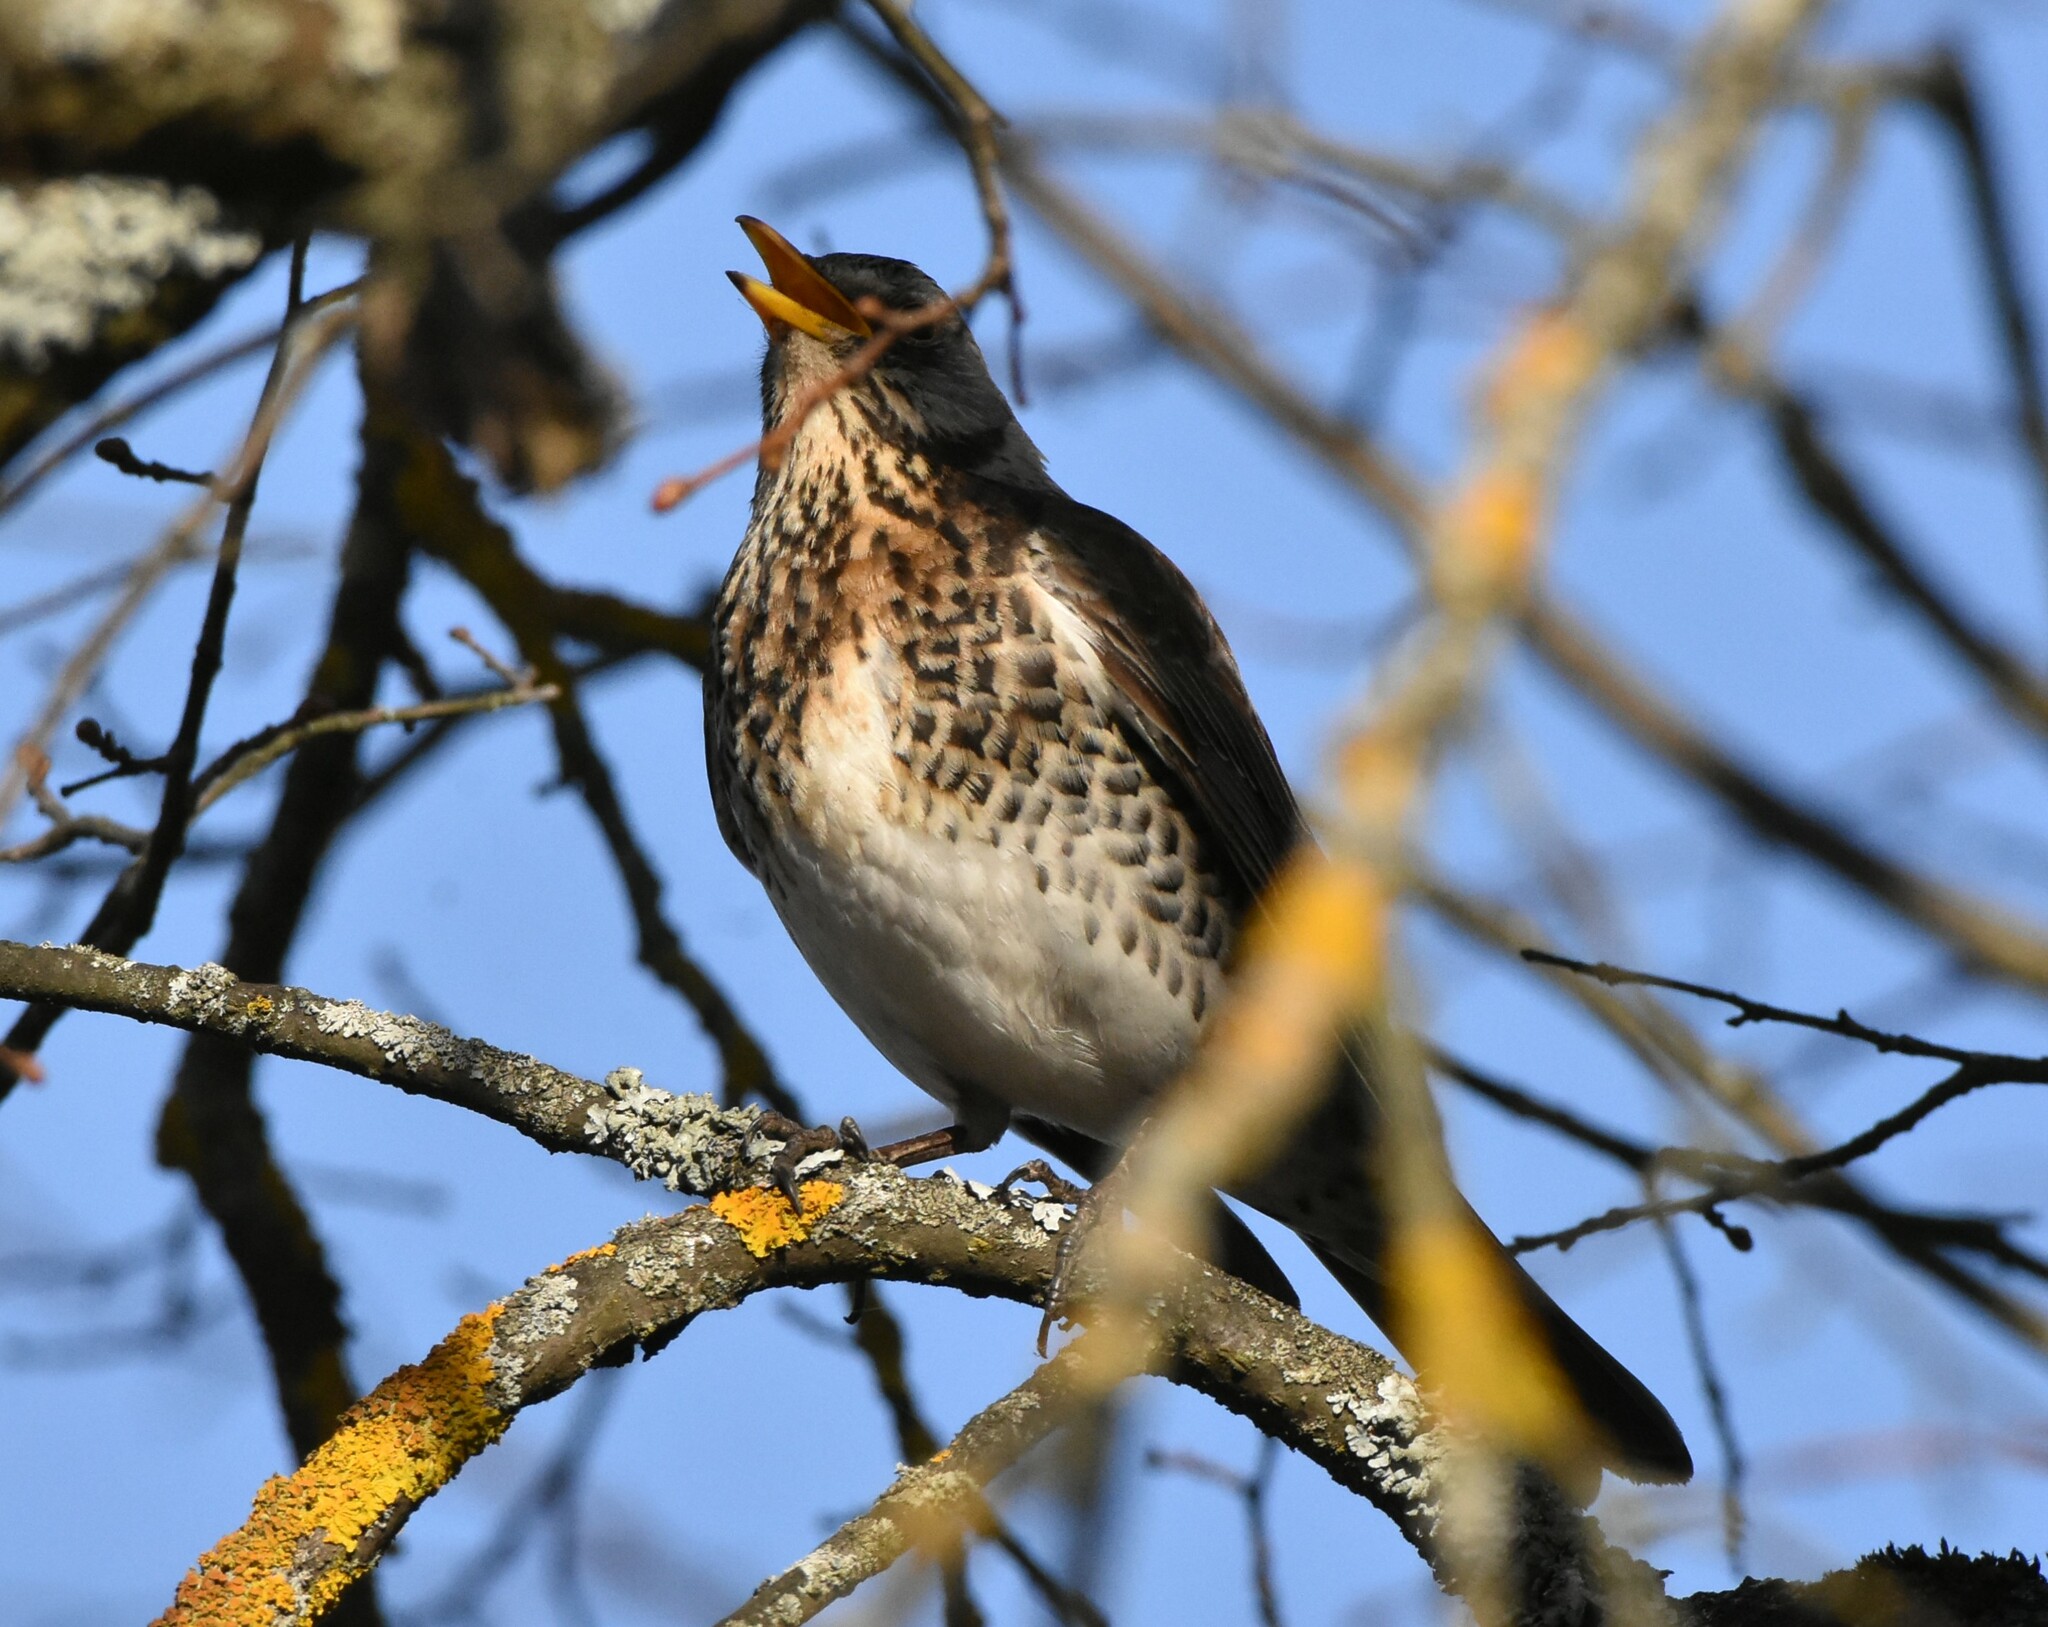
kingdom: Animalia
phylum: Chordata
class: Aves
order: Passeriformes
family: Turdidae
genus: Turdus
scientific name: Turdus pilaris
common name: Fieldfare
